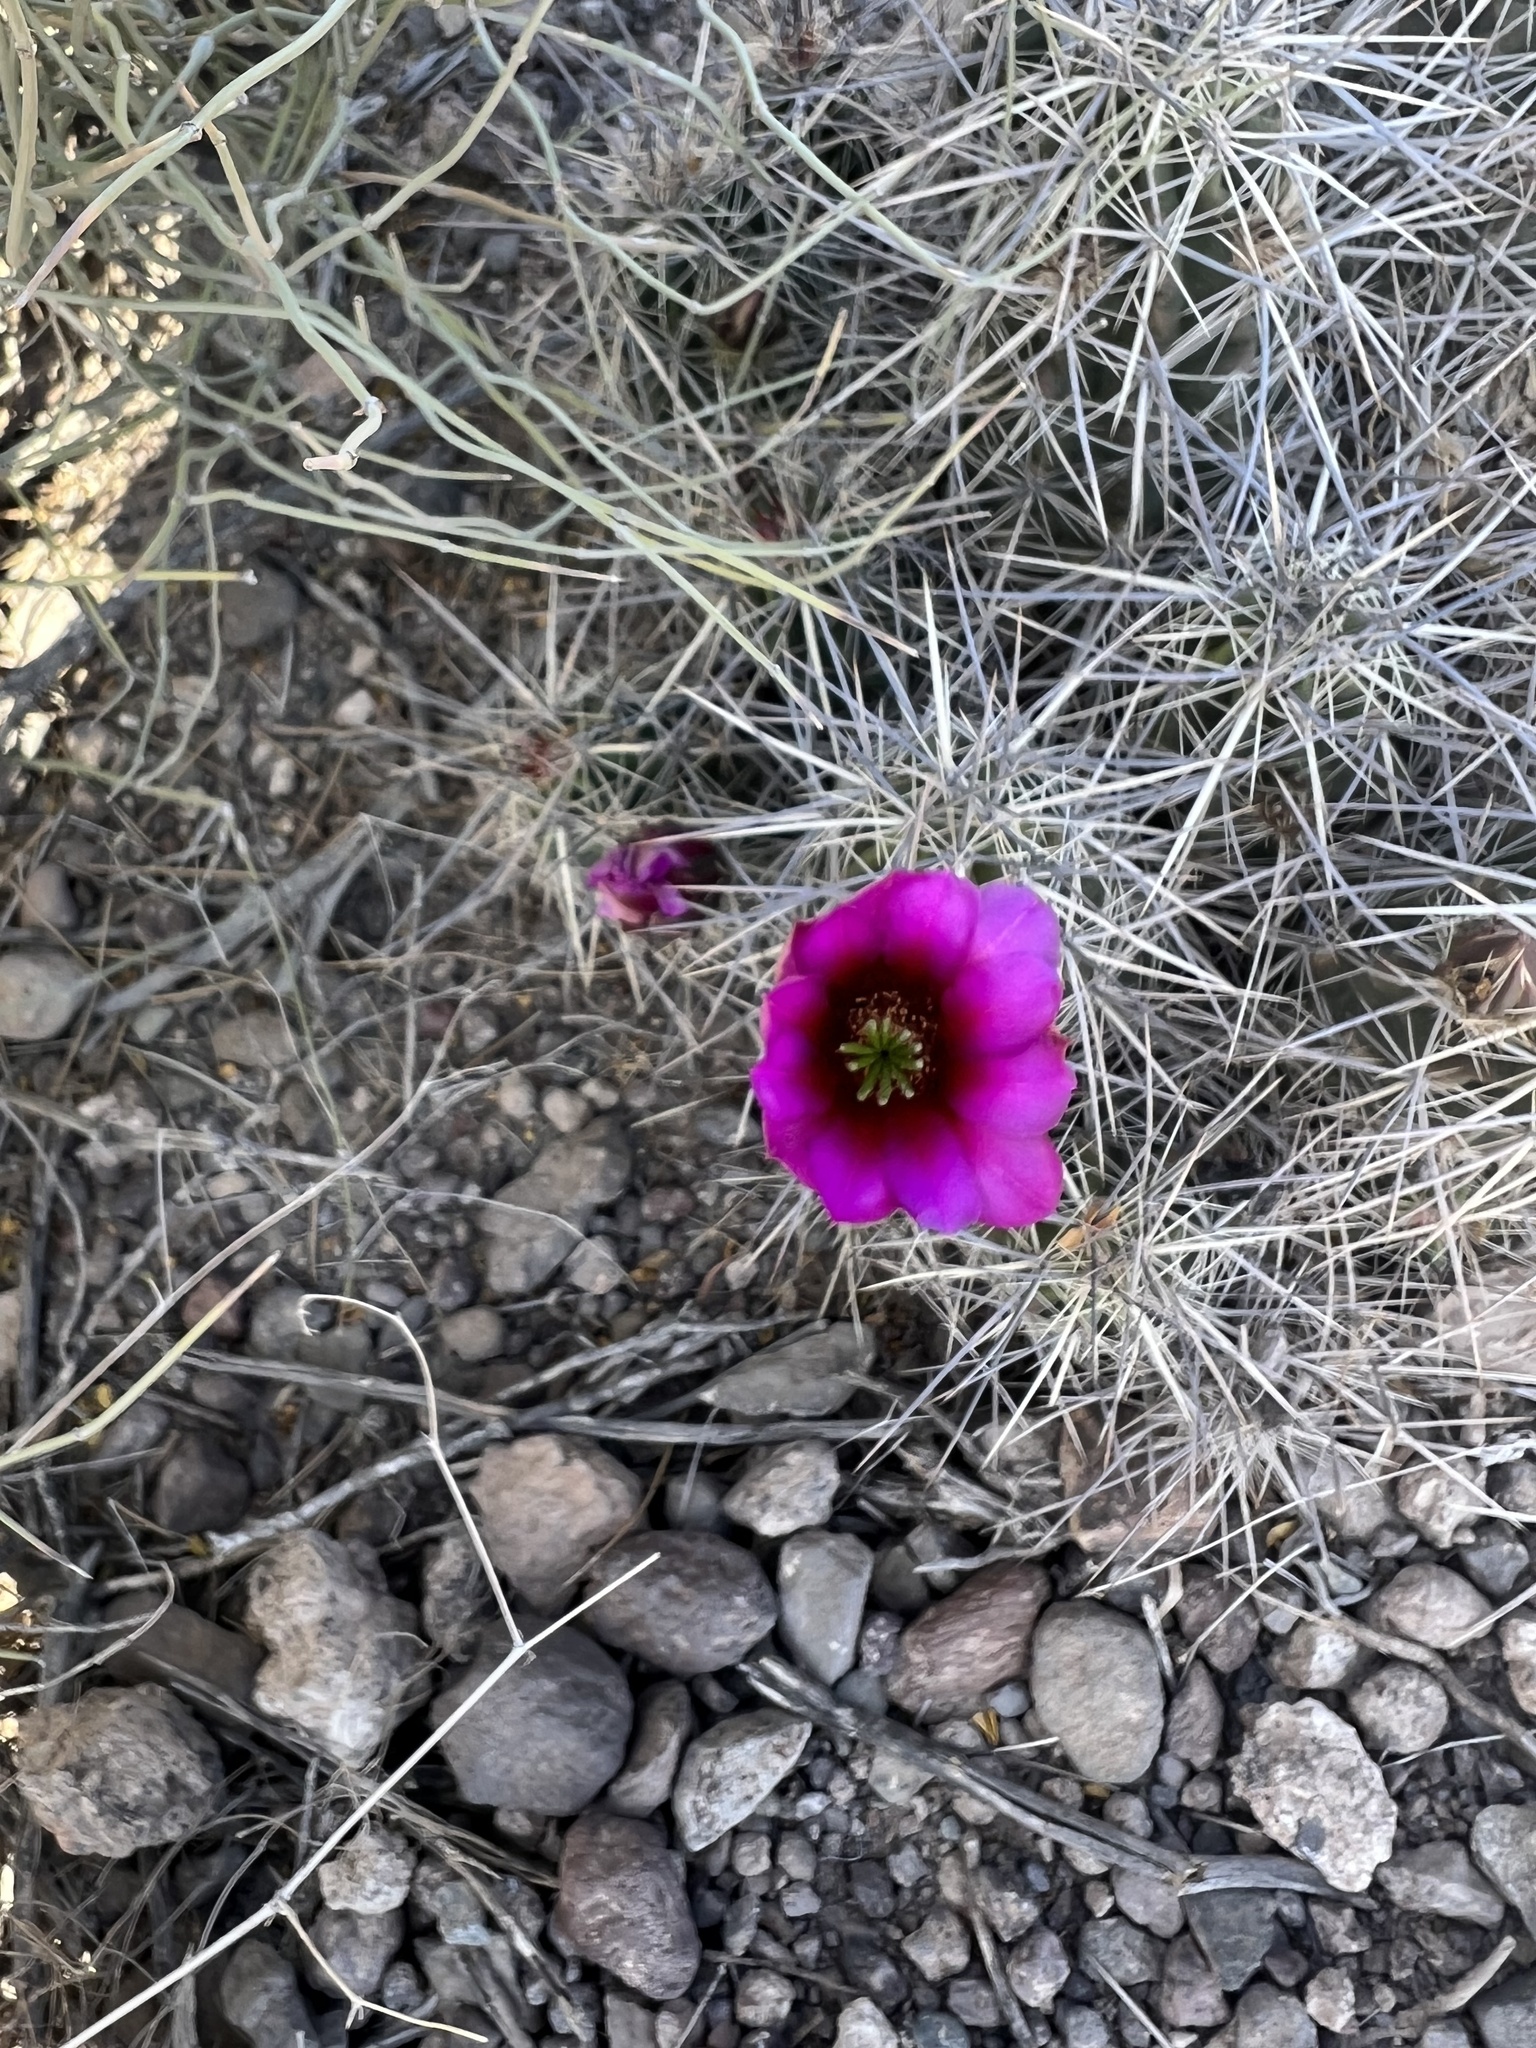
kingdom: Plantae
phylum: Tracheophyta
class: Magnoliopsida
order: Caryophyllales
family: Cactaceae
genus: Echinocereus
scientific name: Echinocereus enneacanthus
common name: Pitaya
